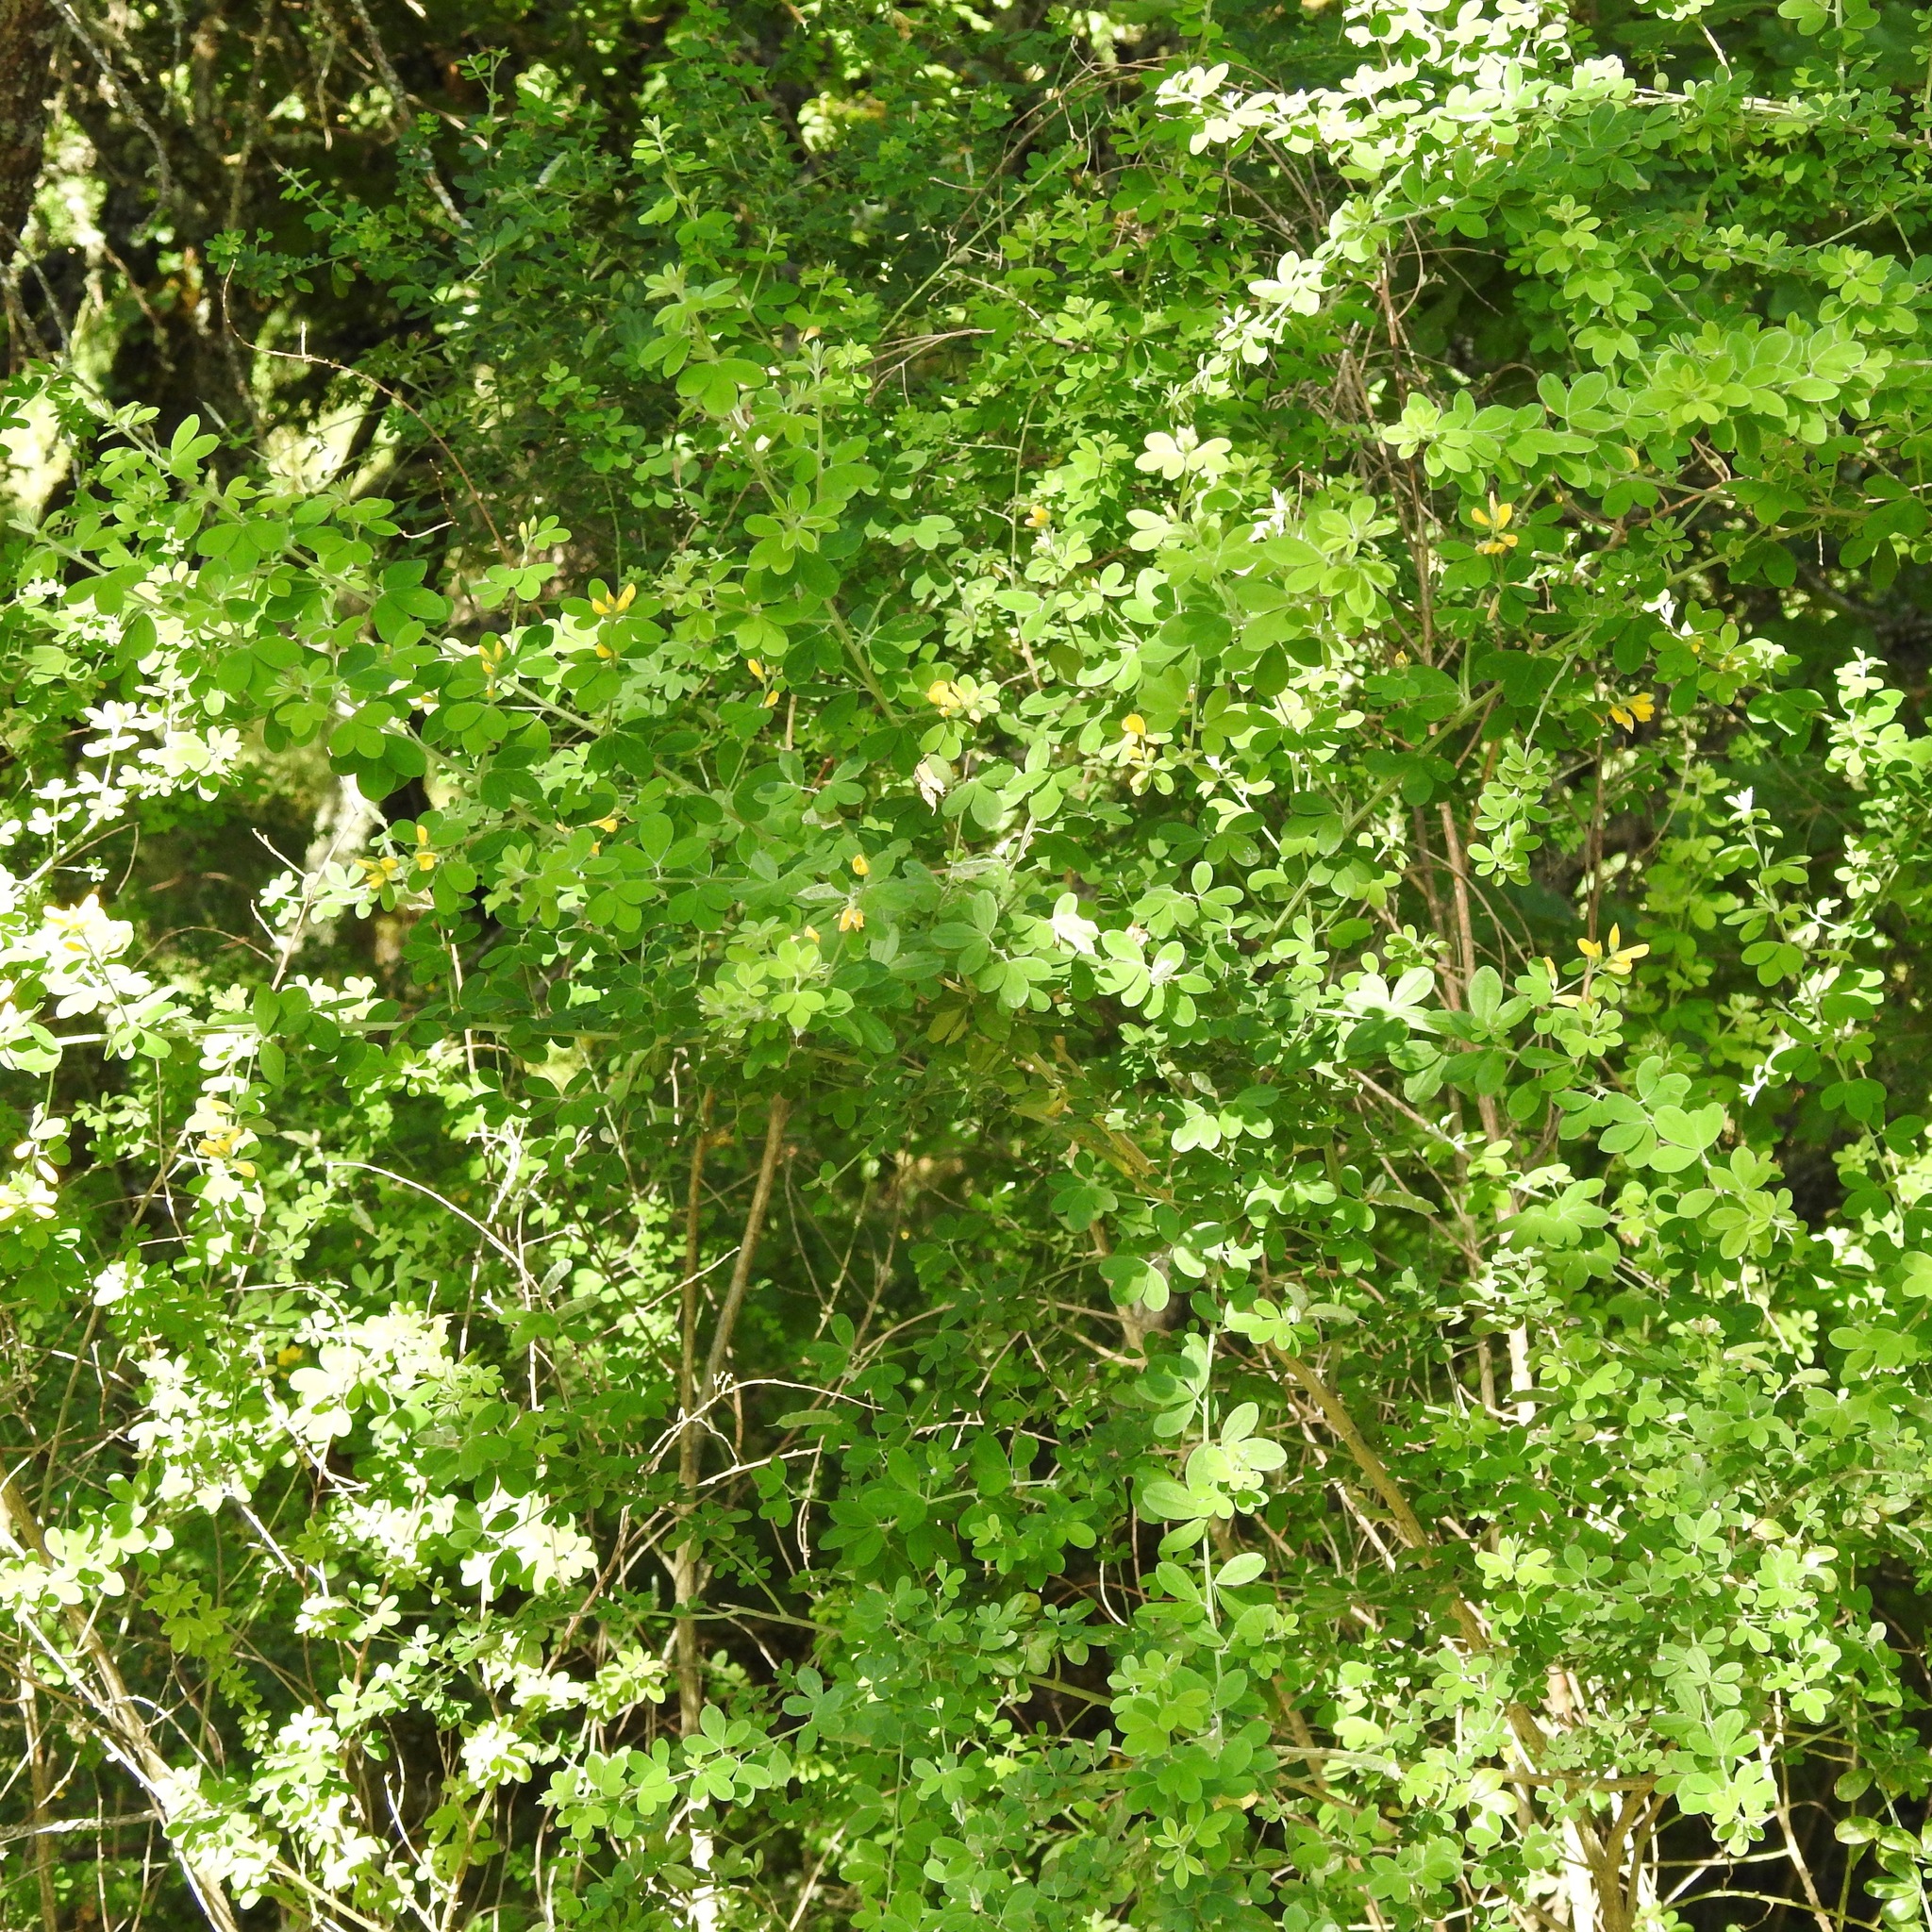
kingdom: Plantae
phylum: Tracheophyta
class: Magnoliopsida
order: Fabales
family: Fabaceae
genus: Genista
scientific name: Genista monspessulana
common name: Montpellier broom
